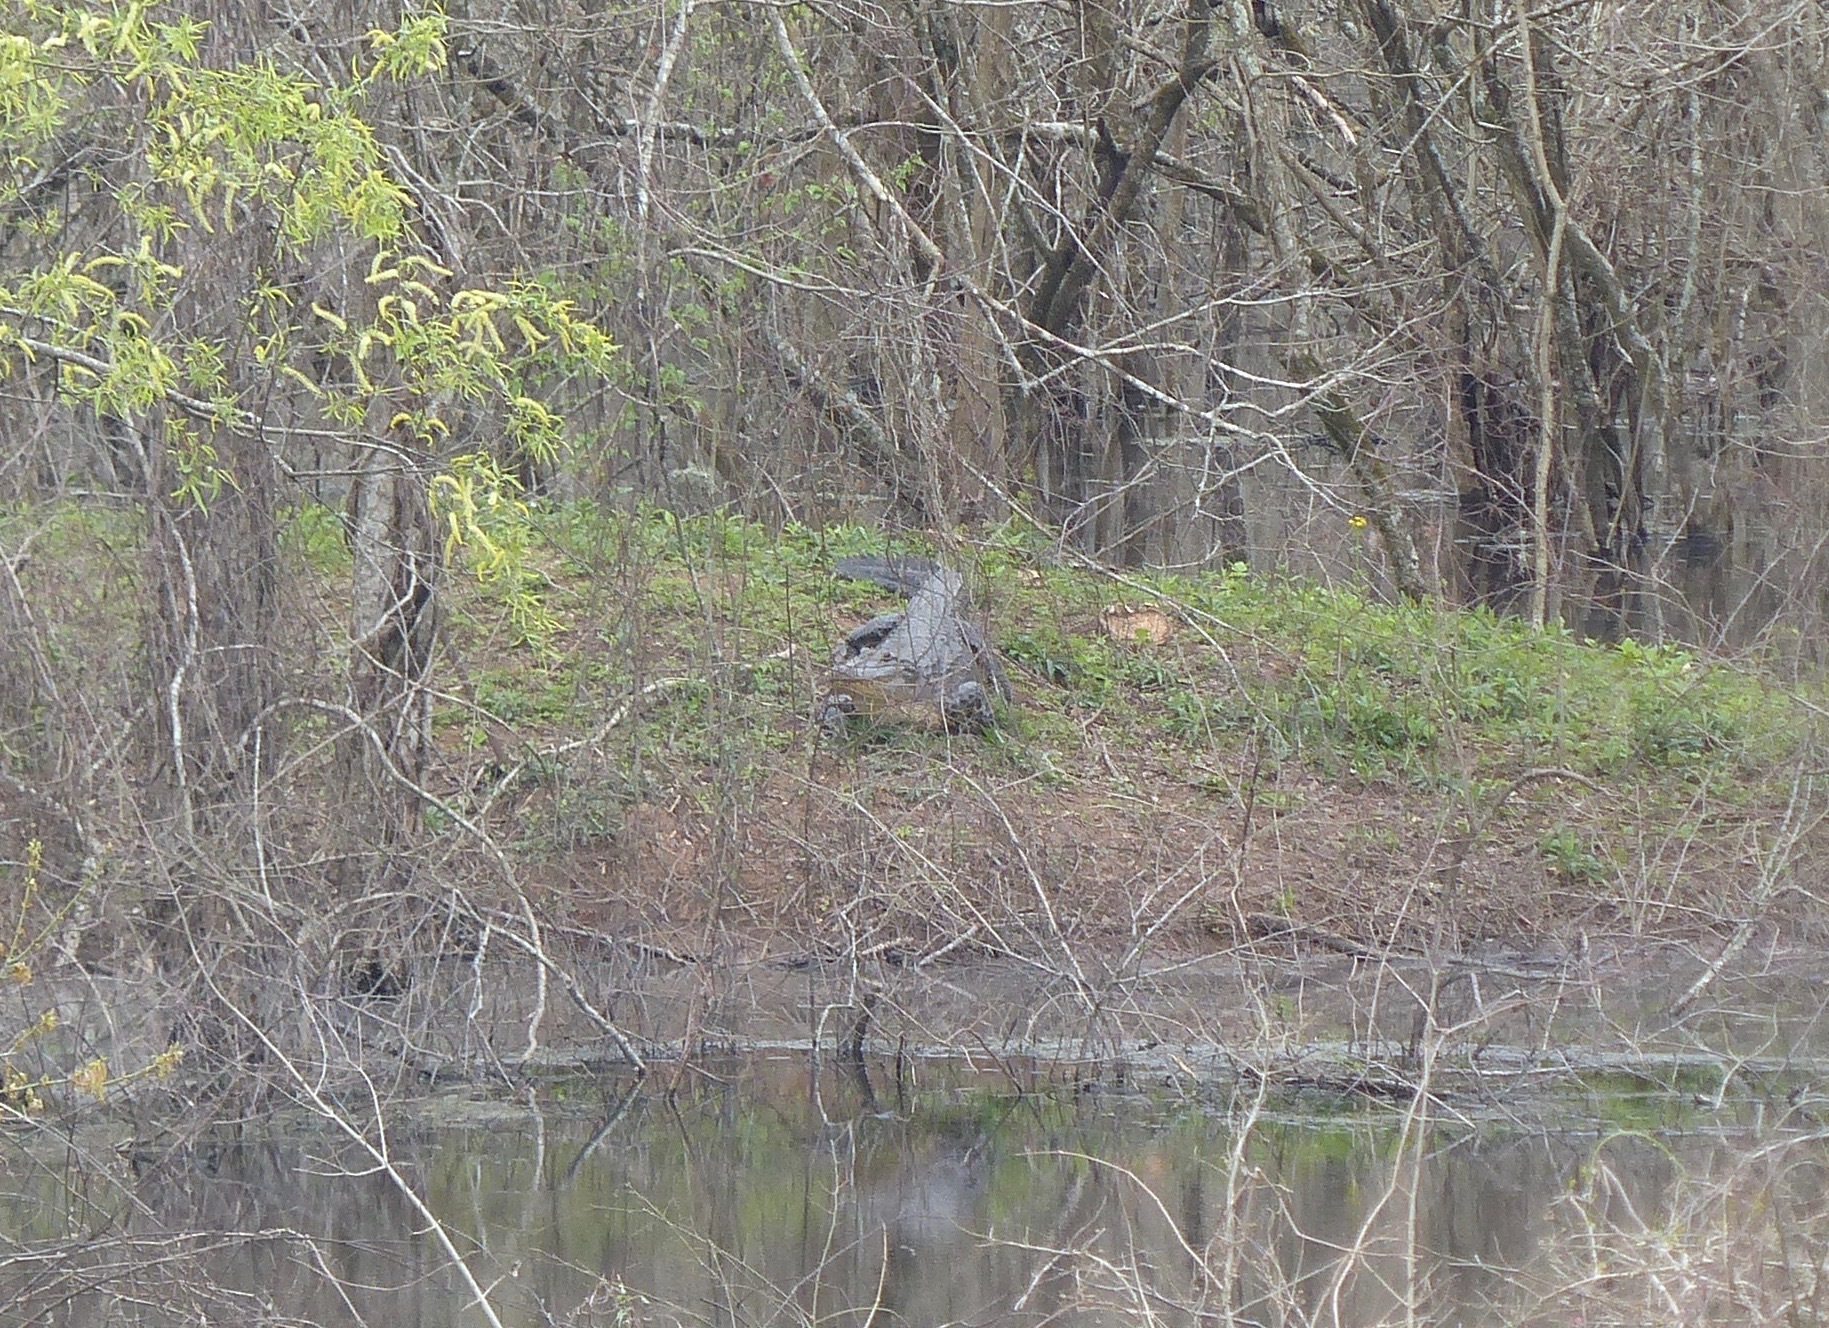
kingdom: Animalia
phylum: Chordata
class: Crocodylia
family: Alligatoridae
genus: Alligator
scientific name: Alligator mississippiensis
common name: American alligator
